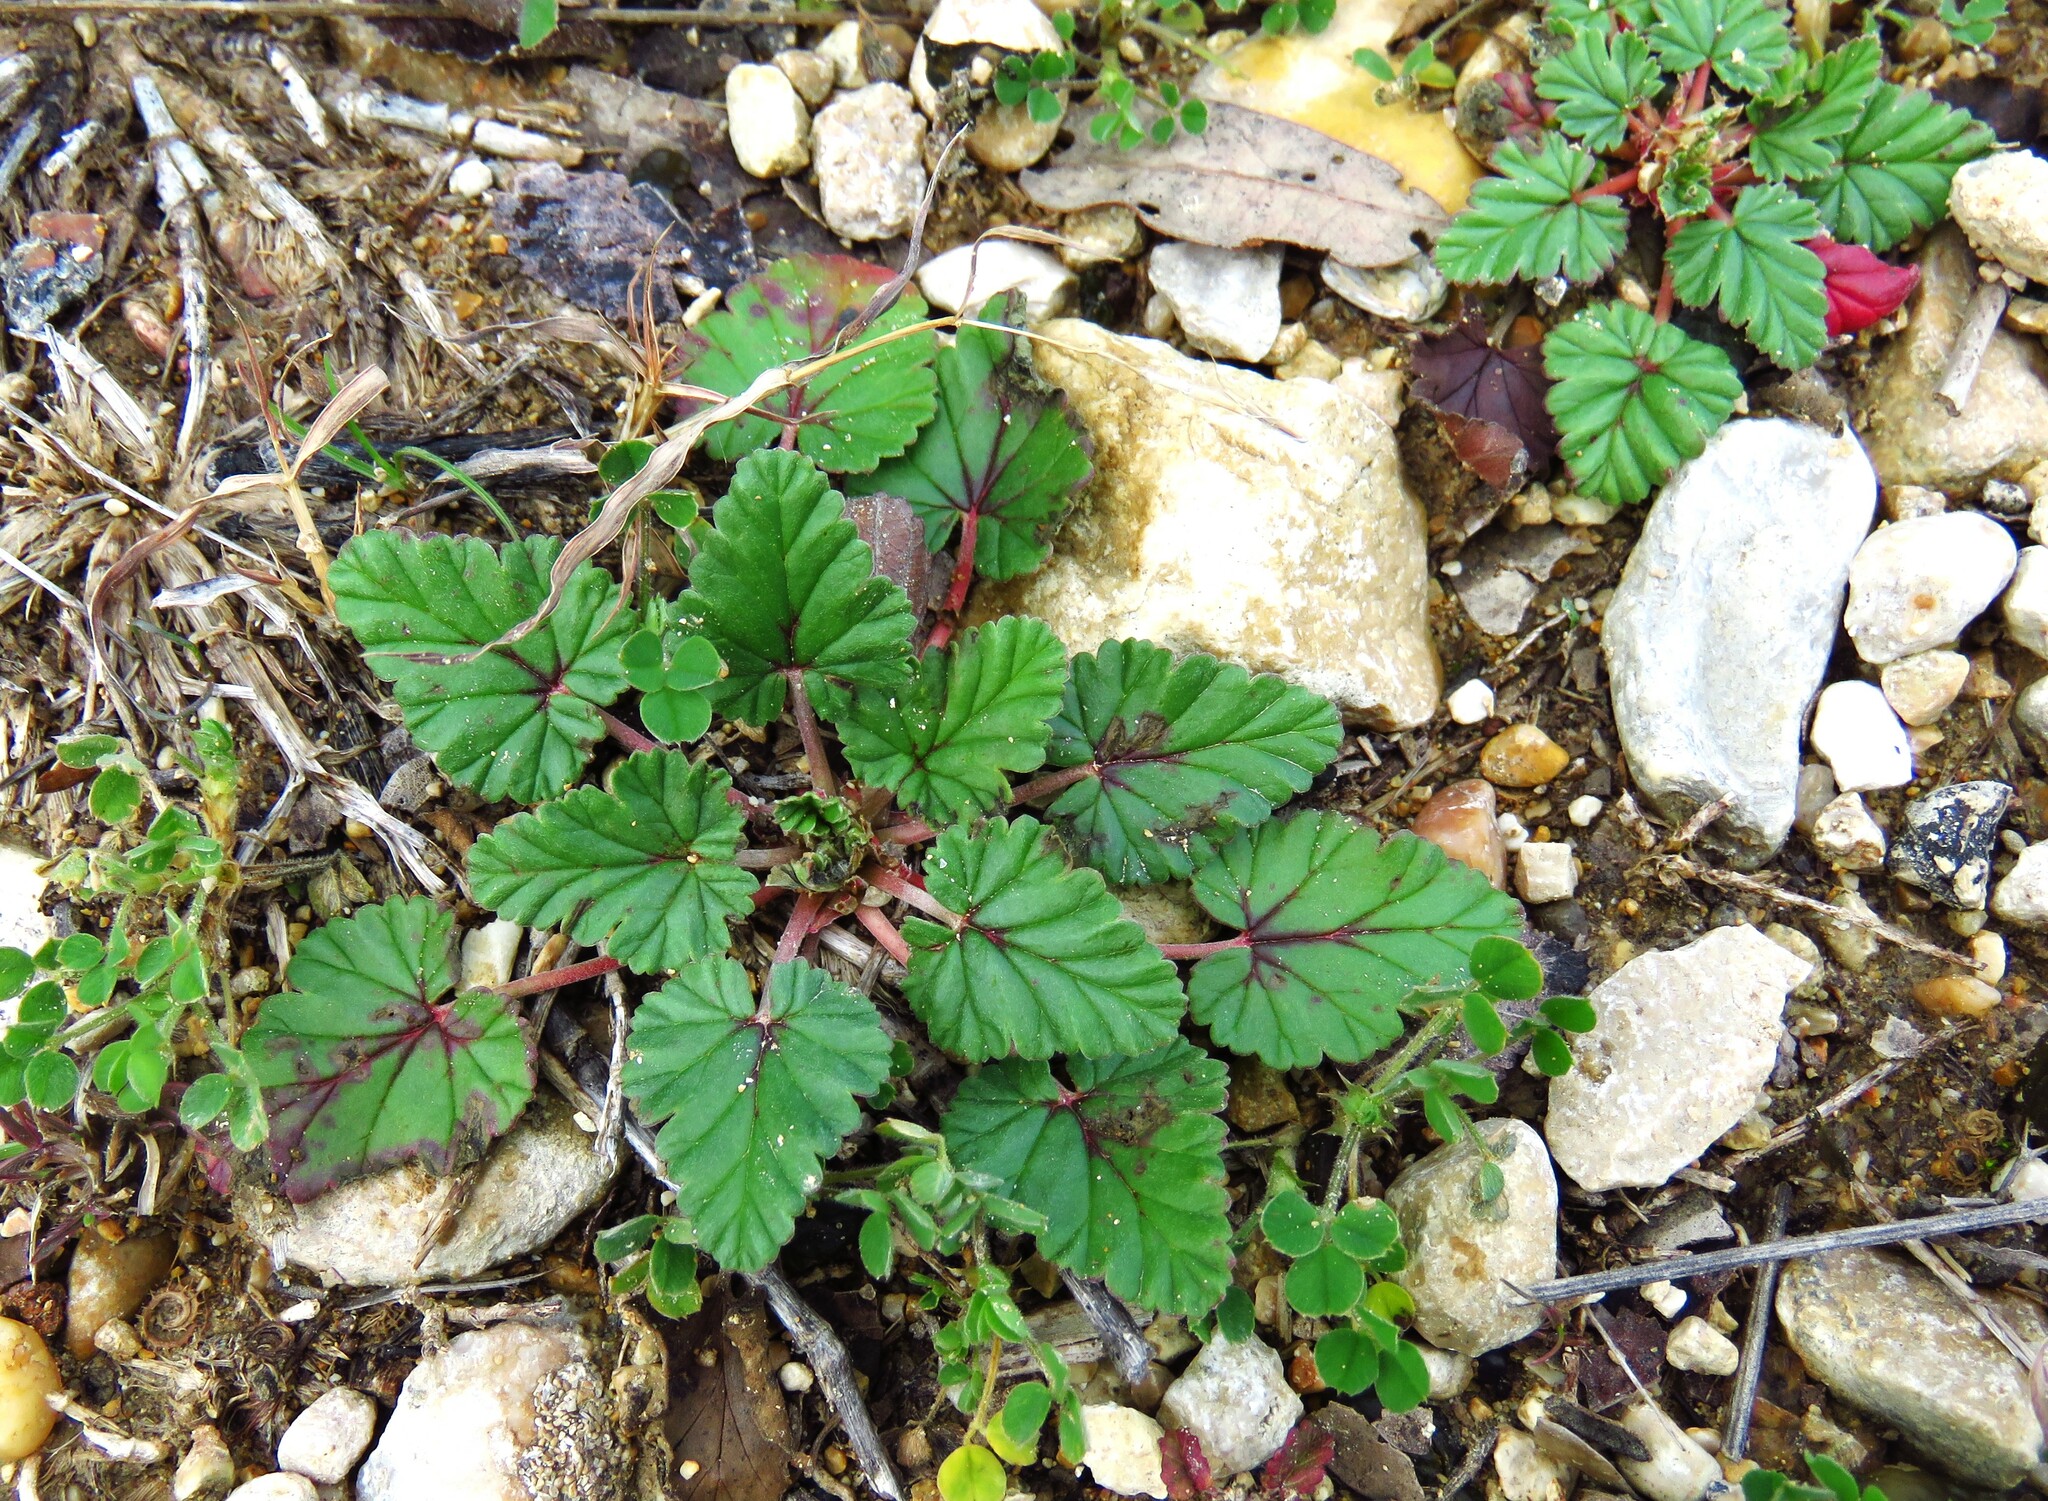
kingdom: Plantae
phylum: Tracheophyta
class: Magnoliopsida
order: Geraniales
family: Geraniaceae
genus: Erodium
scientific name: Erodium texanum
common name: Texas stork's-bill
